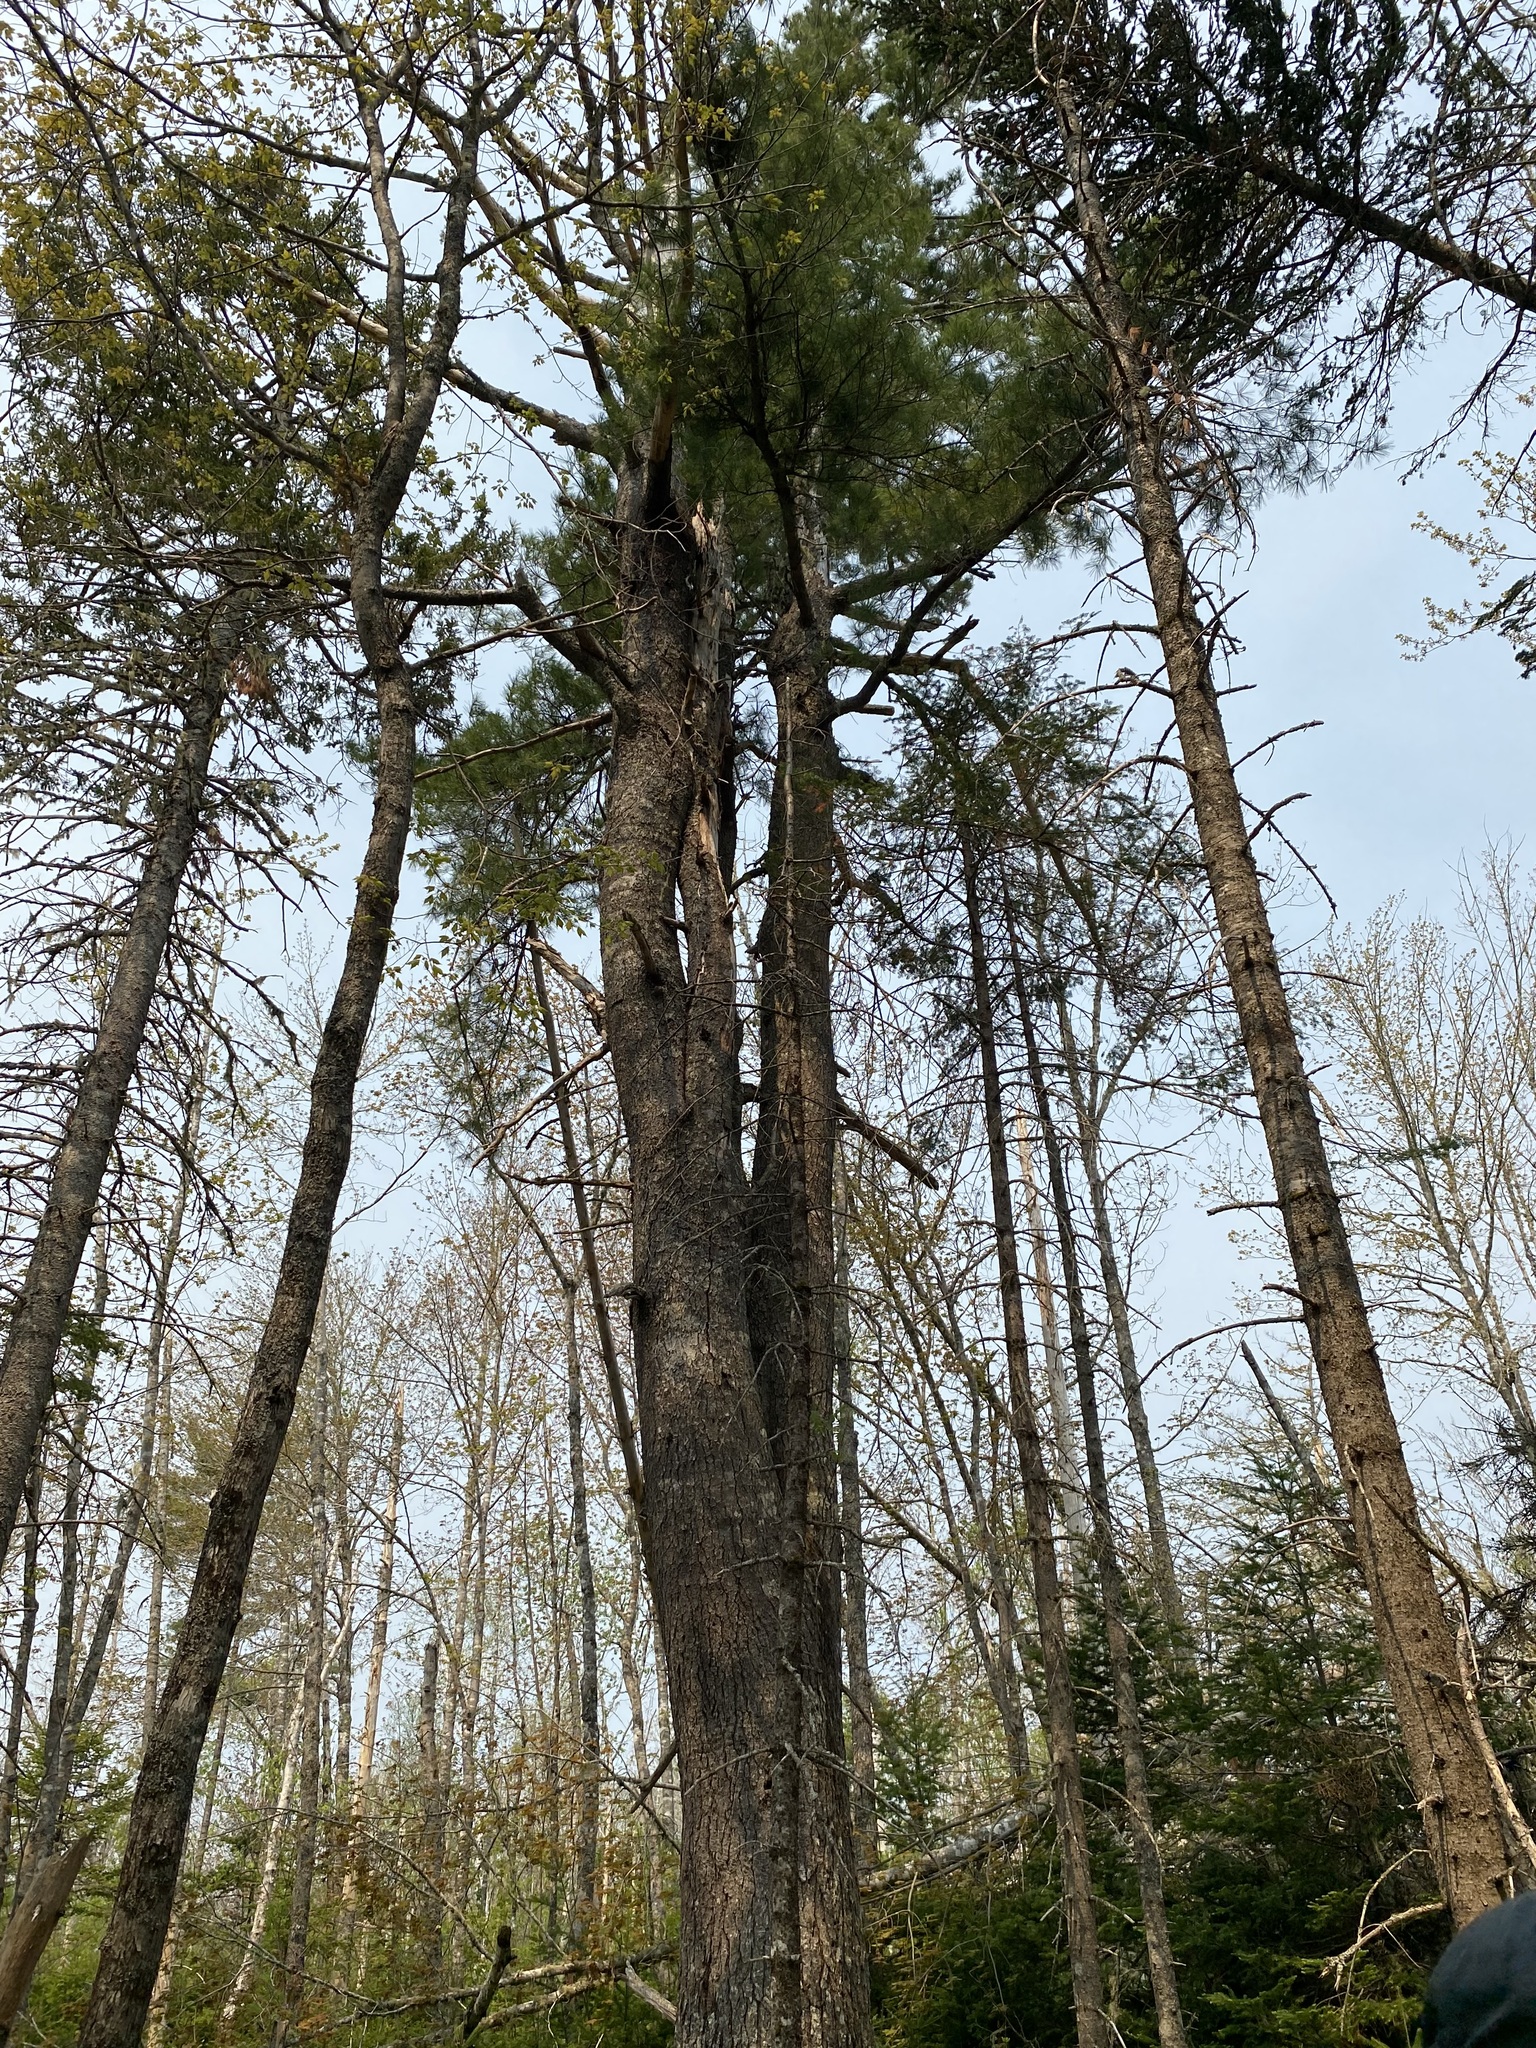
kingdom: Plantae
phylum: Tracheophyta
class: Pinopsida
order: Pinales
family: Pinaceae
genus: Pinus
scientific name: Pinus strobus
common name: Weymouth pine
